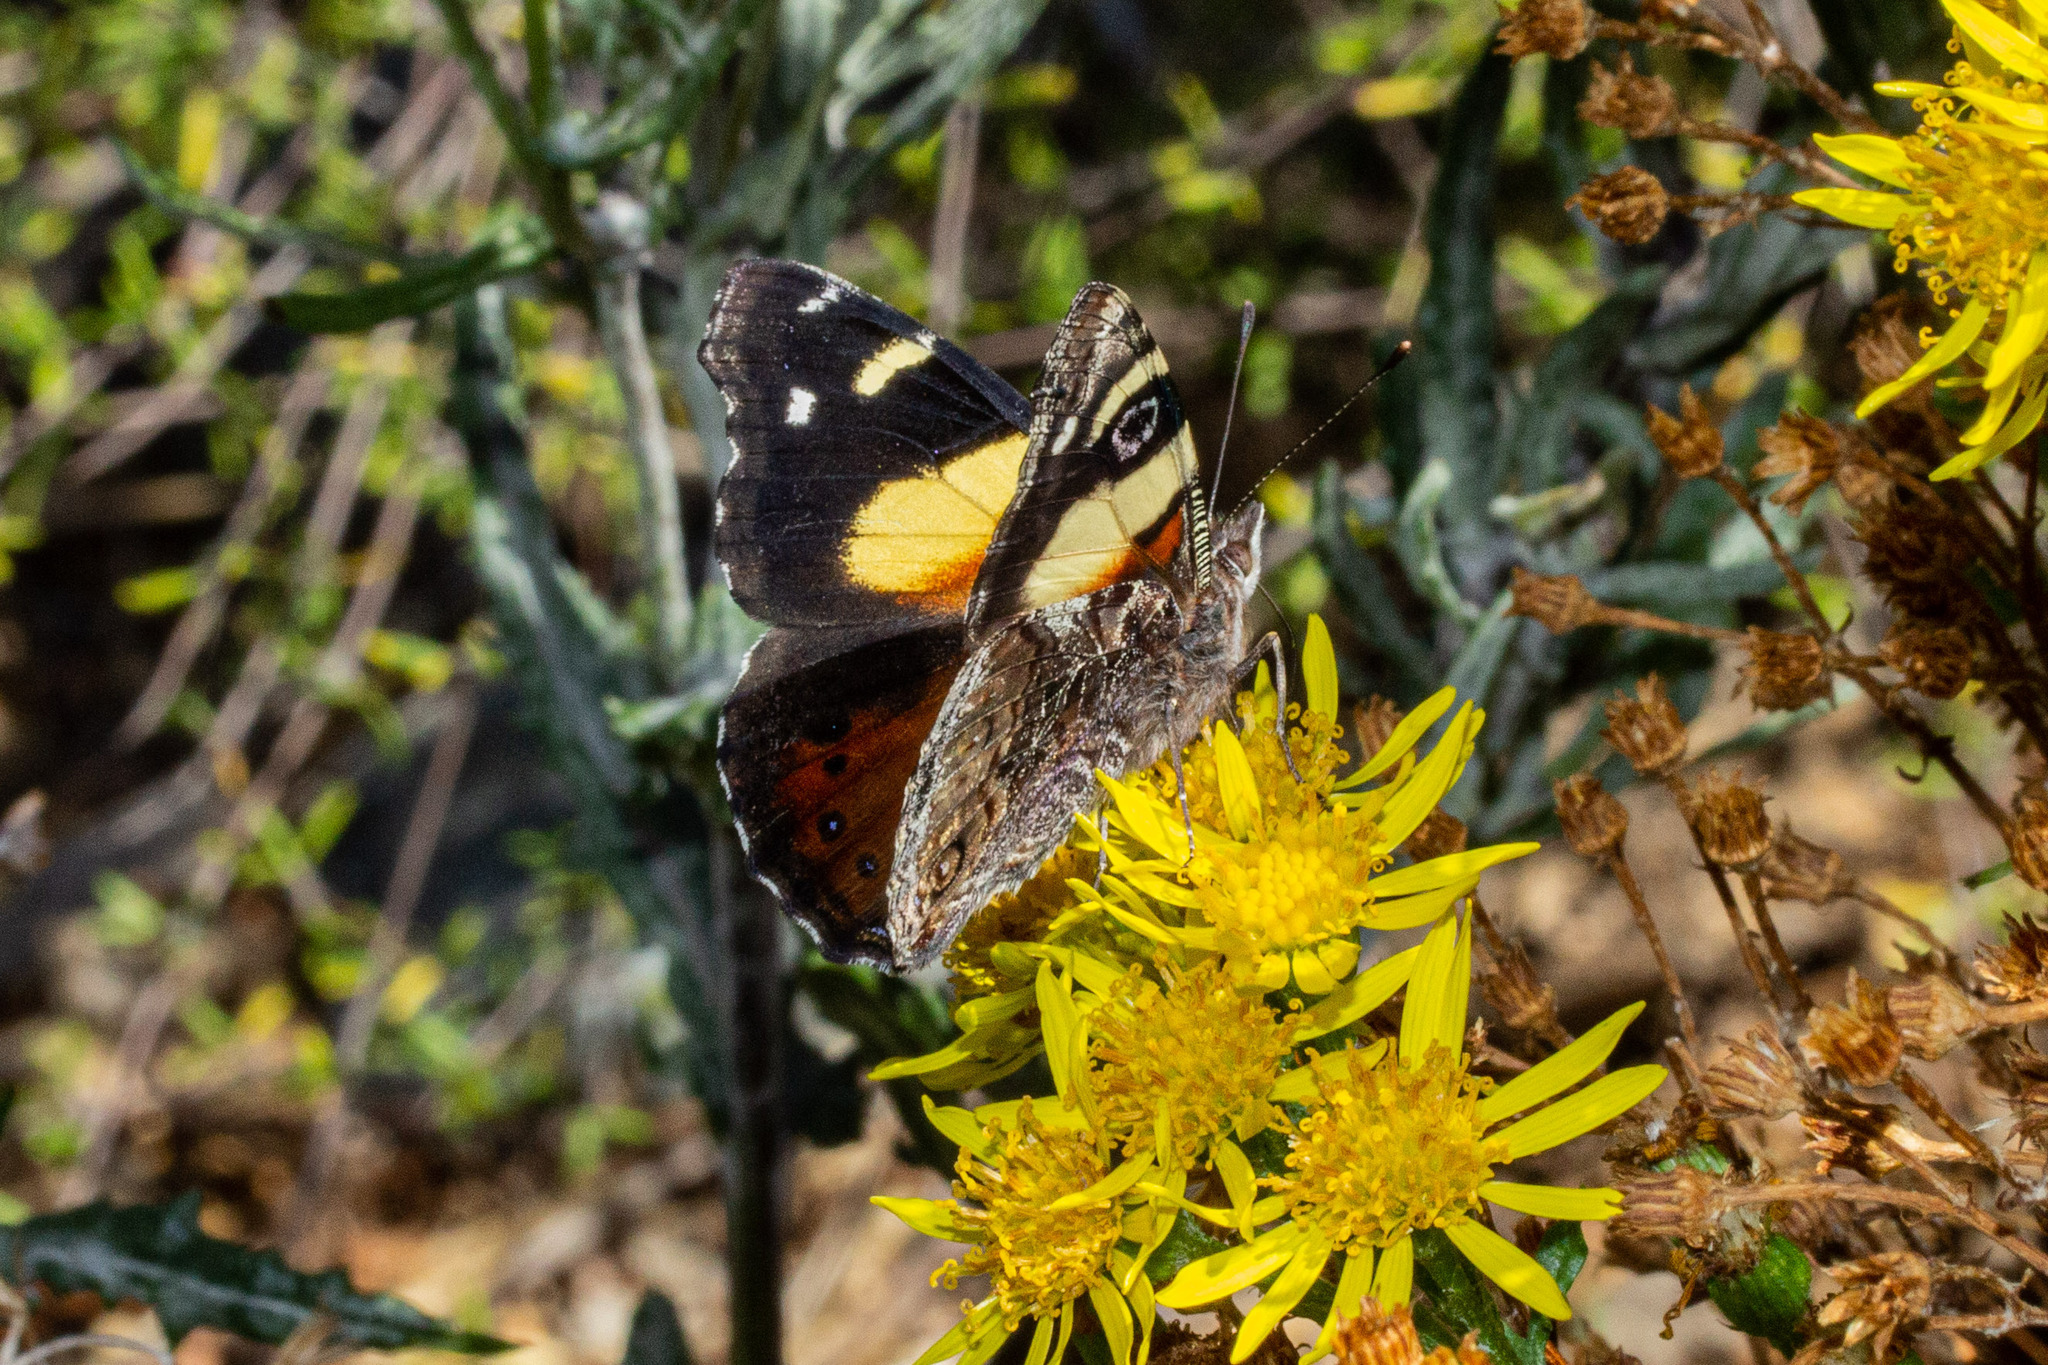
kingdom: Animalia
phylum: Arthropoda
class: Insecta
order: Lepidoptera
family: Nymphalidae
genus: Vanessa
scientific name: Vanessa itea
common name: Yellow admiral
